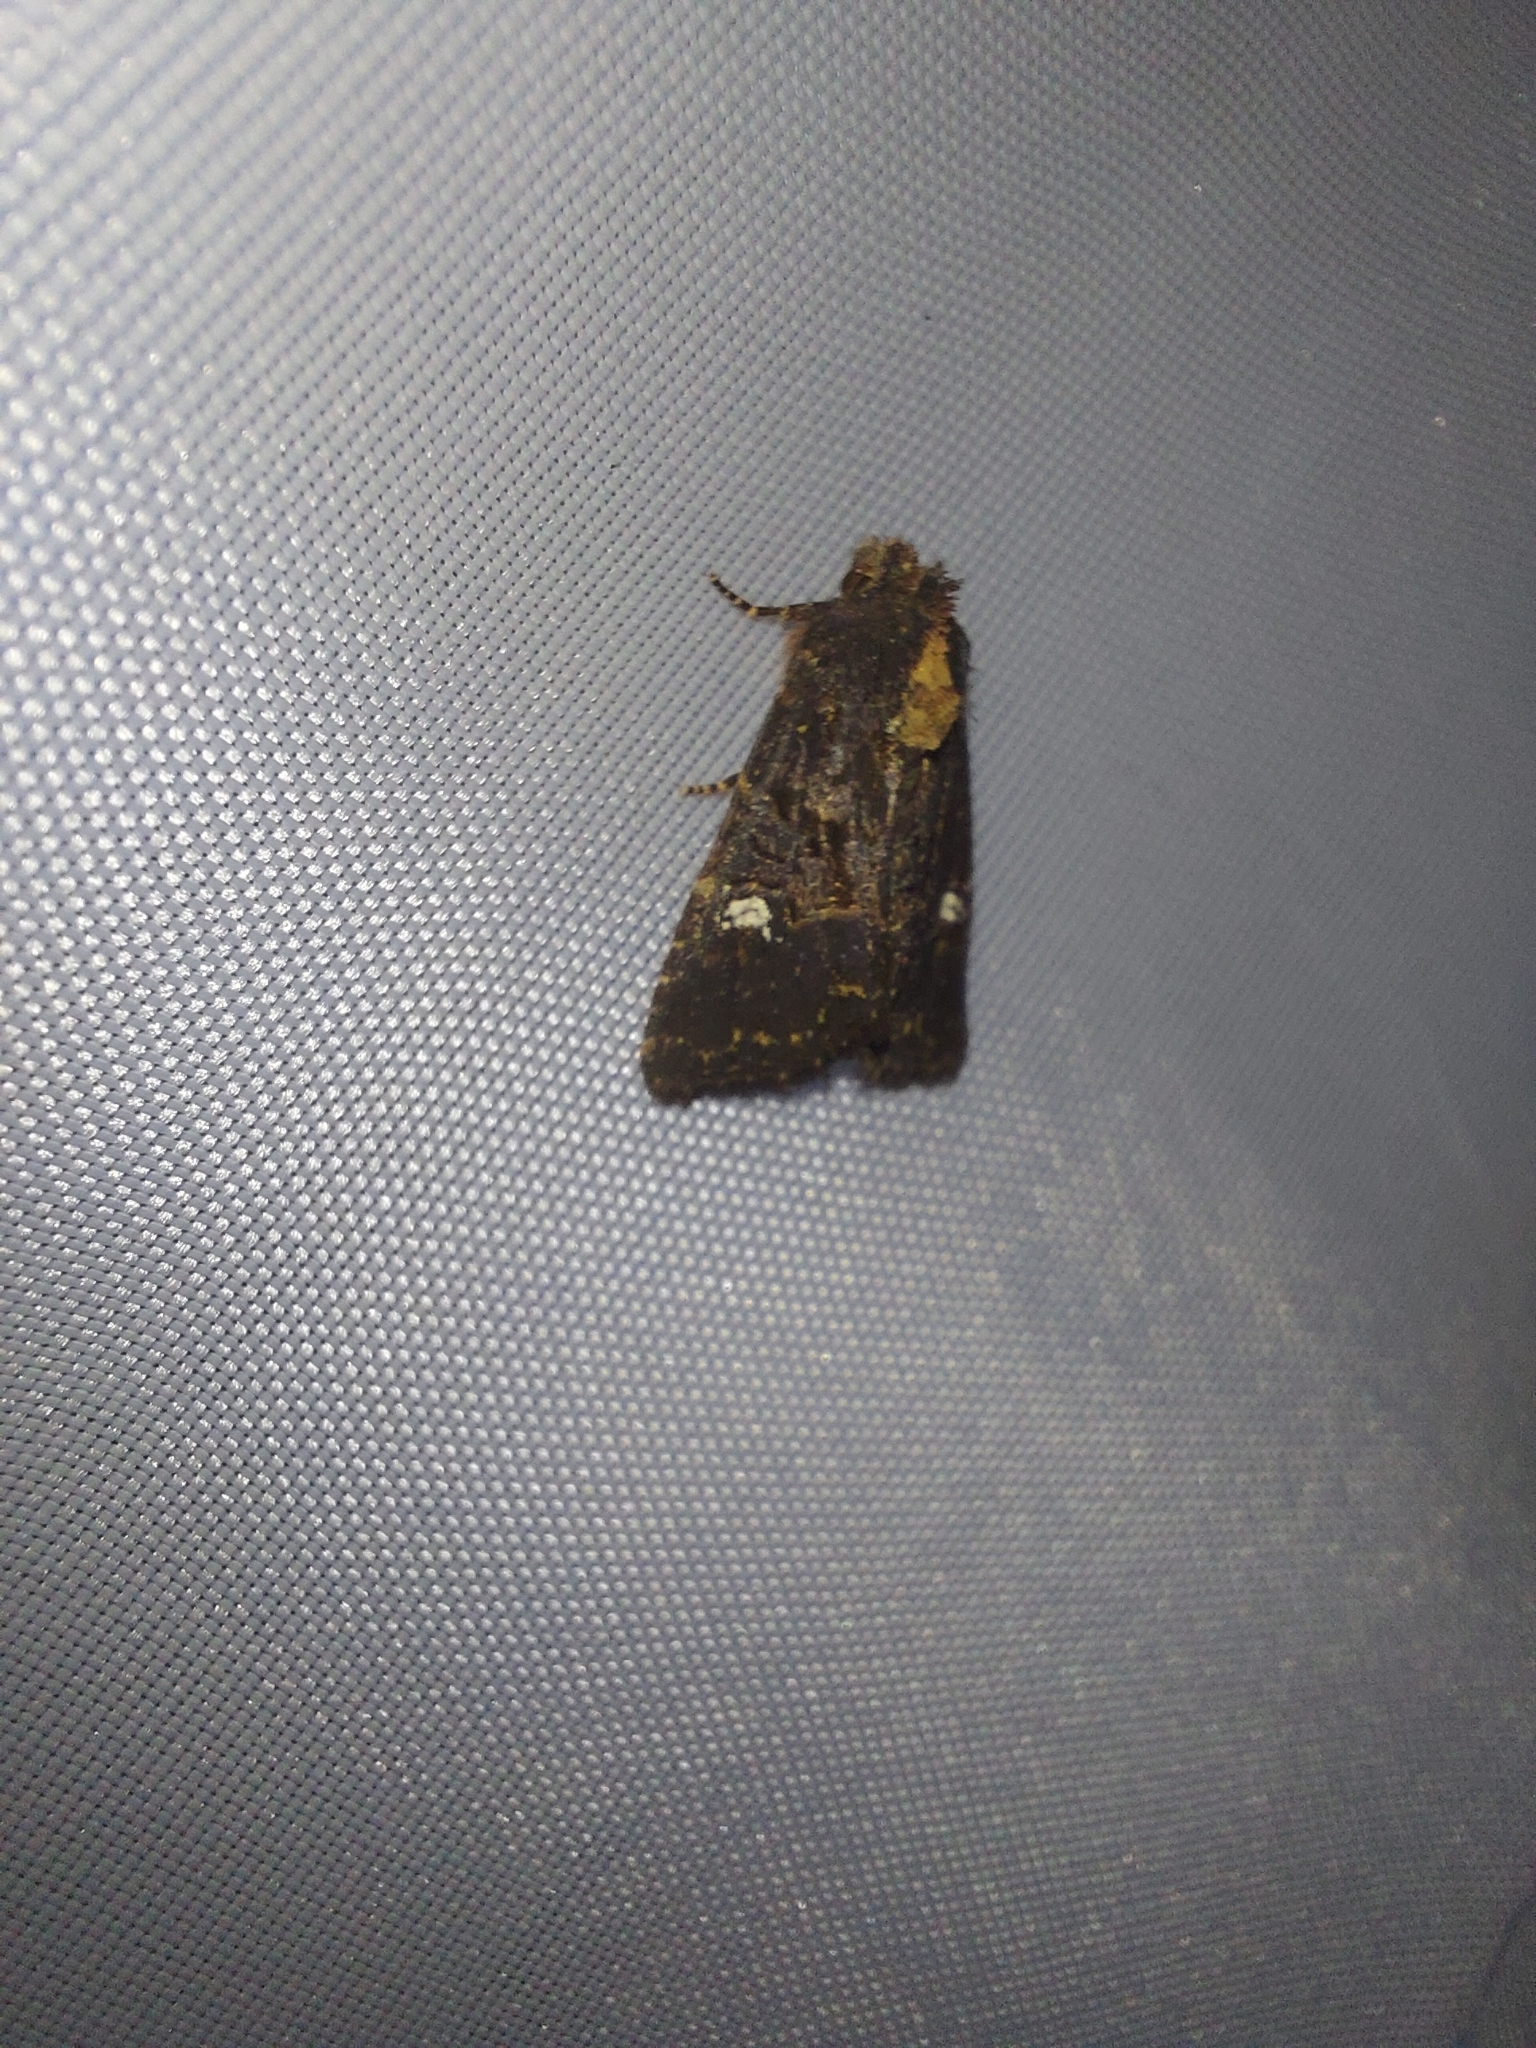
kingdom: Animalia
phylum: Arthropoda
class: Insecta
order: Lepidoptera
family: Noctuidae
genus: Melanchra
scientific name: Melanchra persicariae
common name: Dot moth
